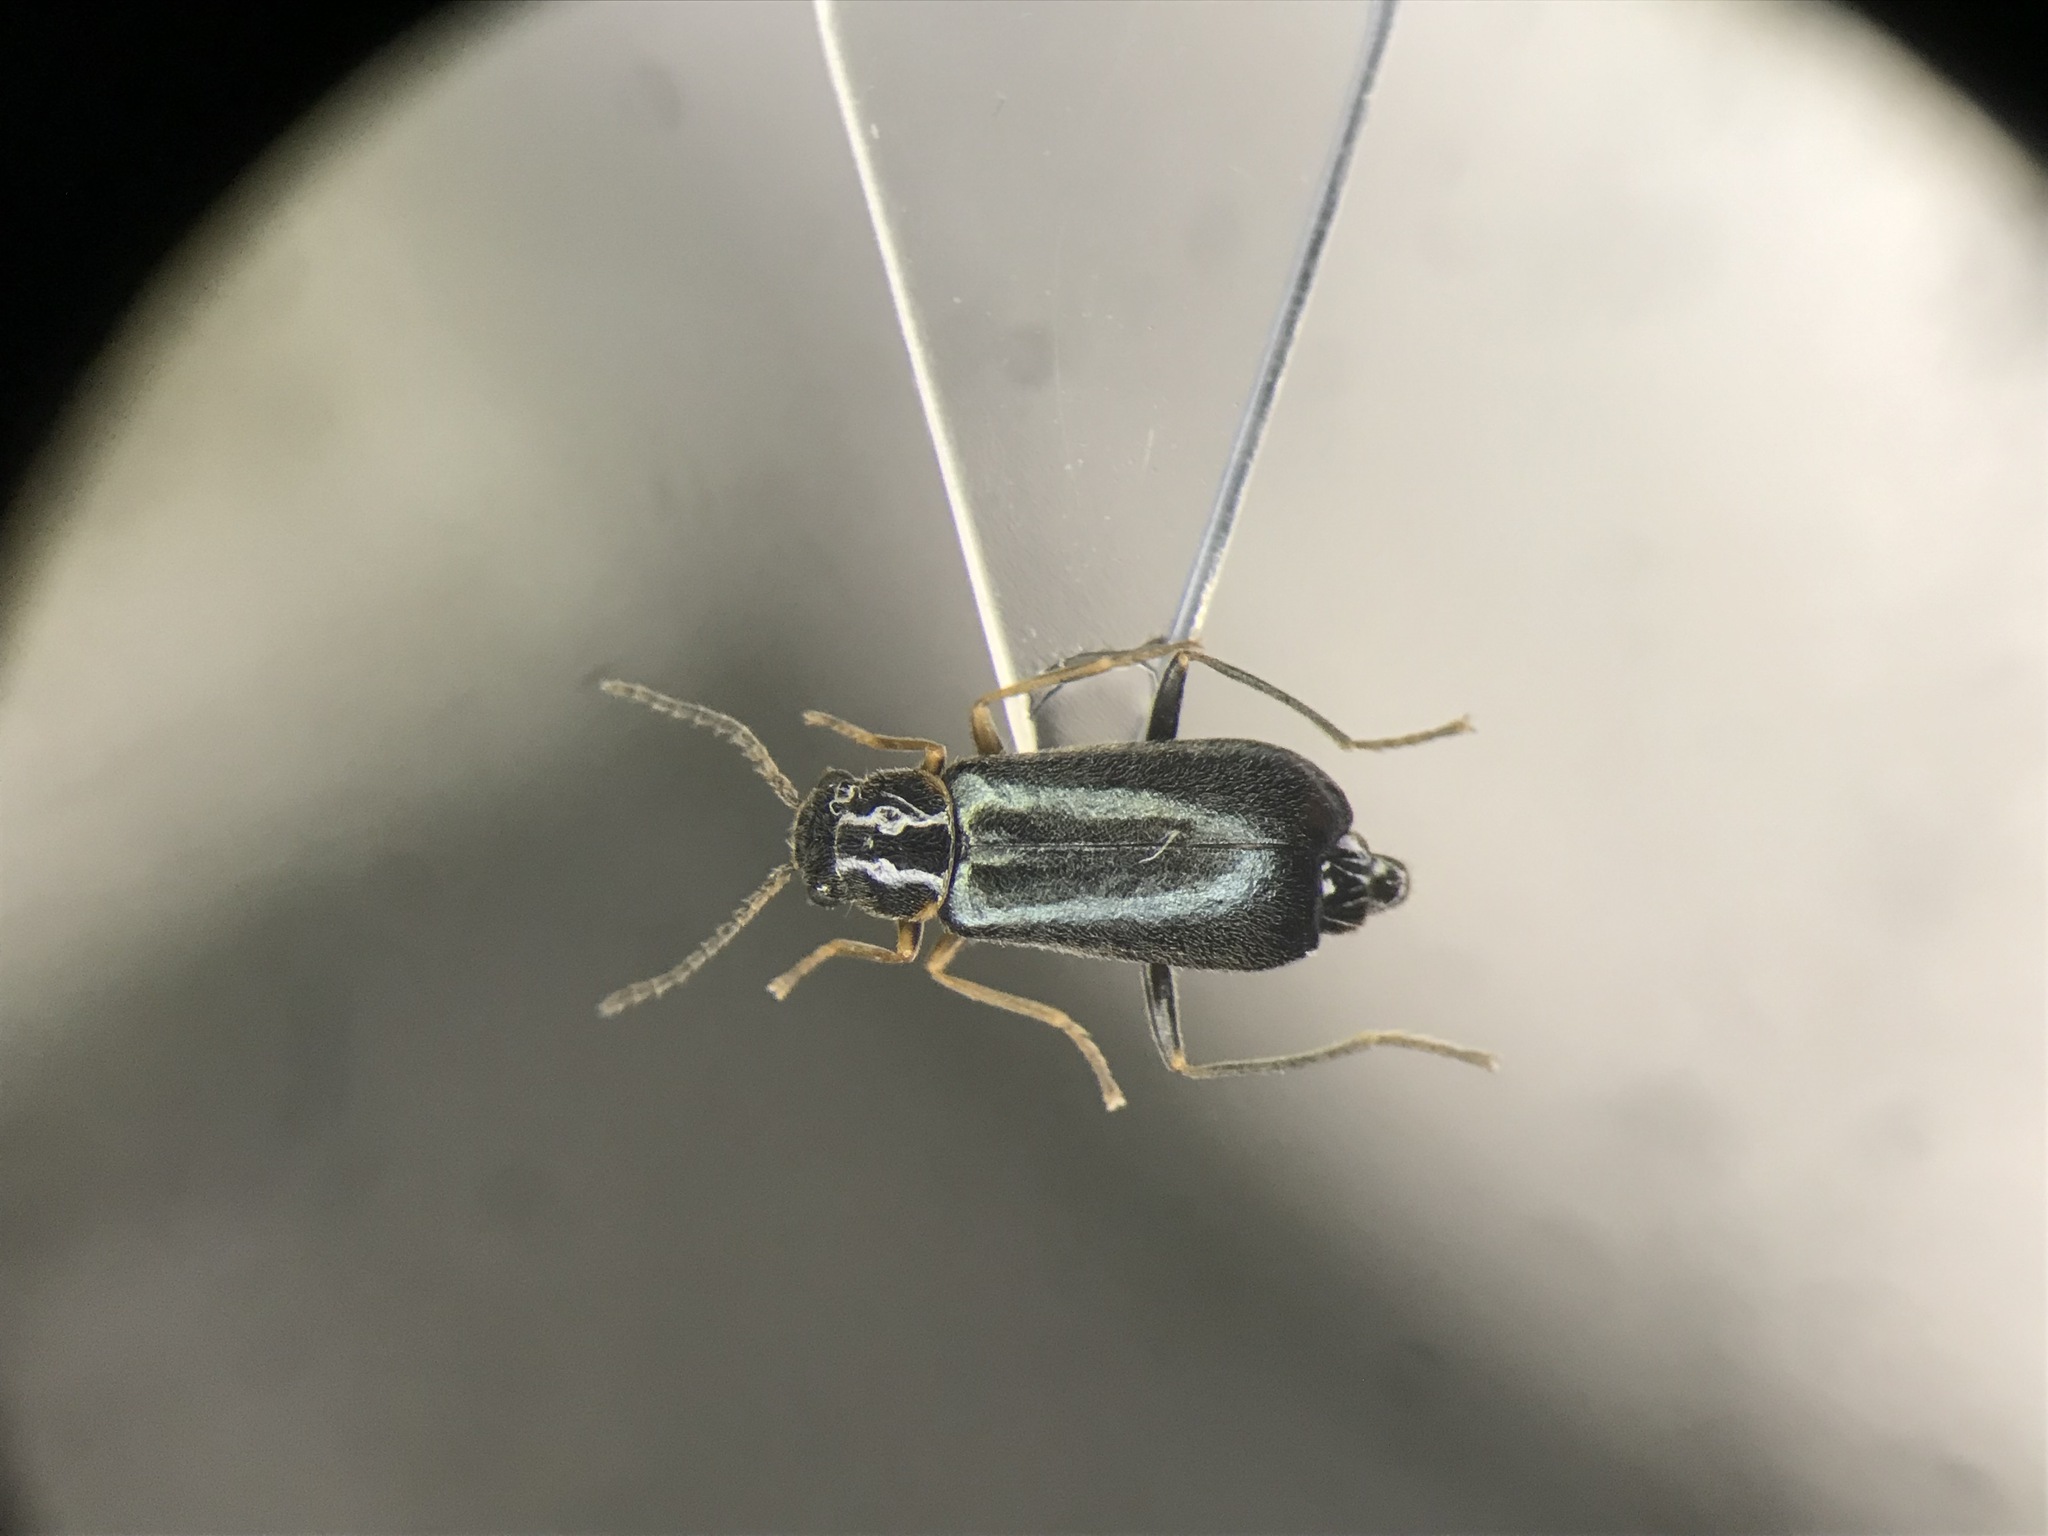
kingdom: Animalia
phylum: Arthropoda
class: Insecta
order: Coleoptera
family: Melyridae
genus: Nodopus
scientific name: Nodopus flavilabris
